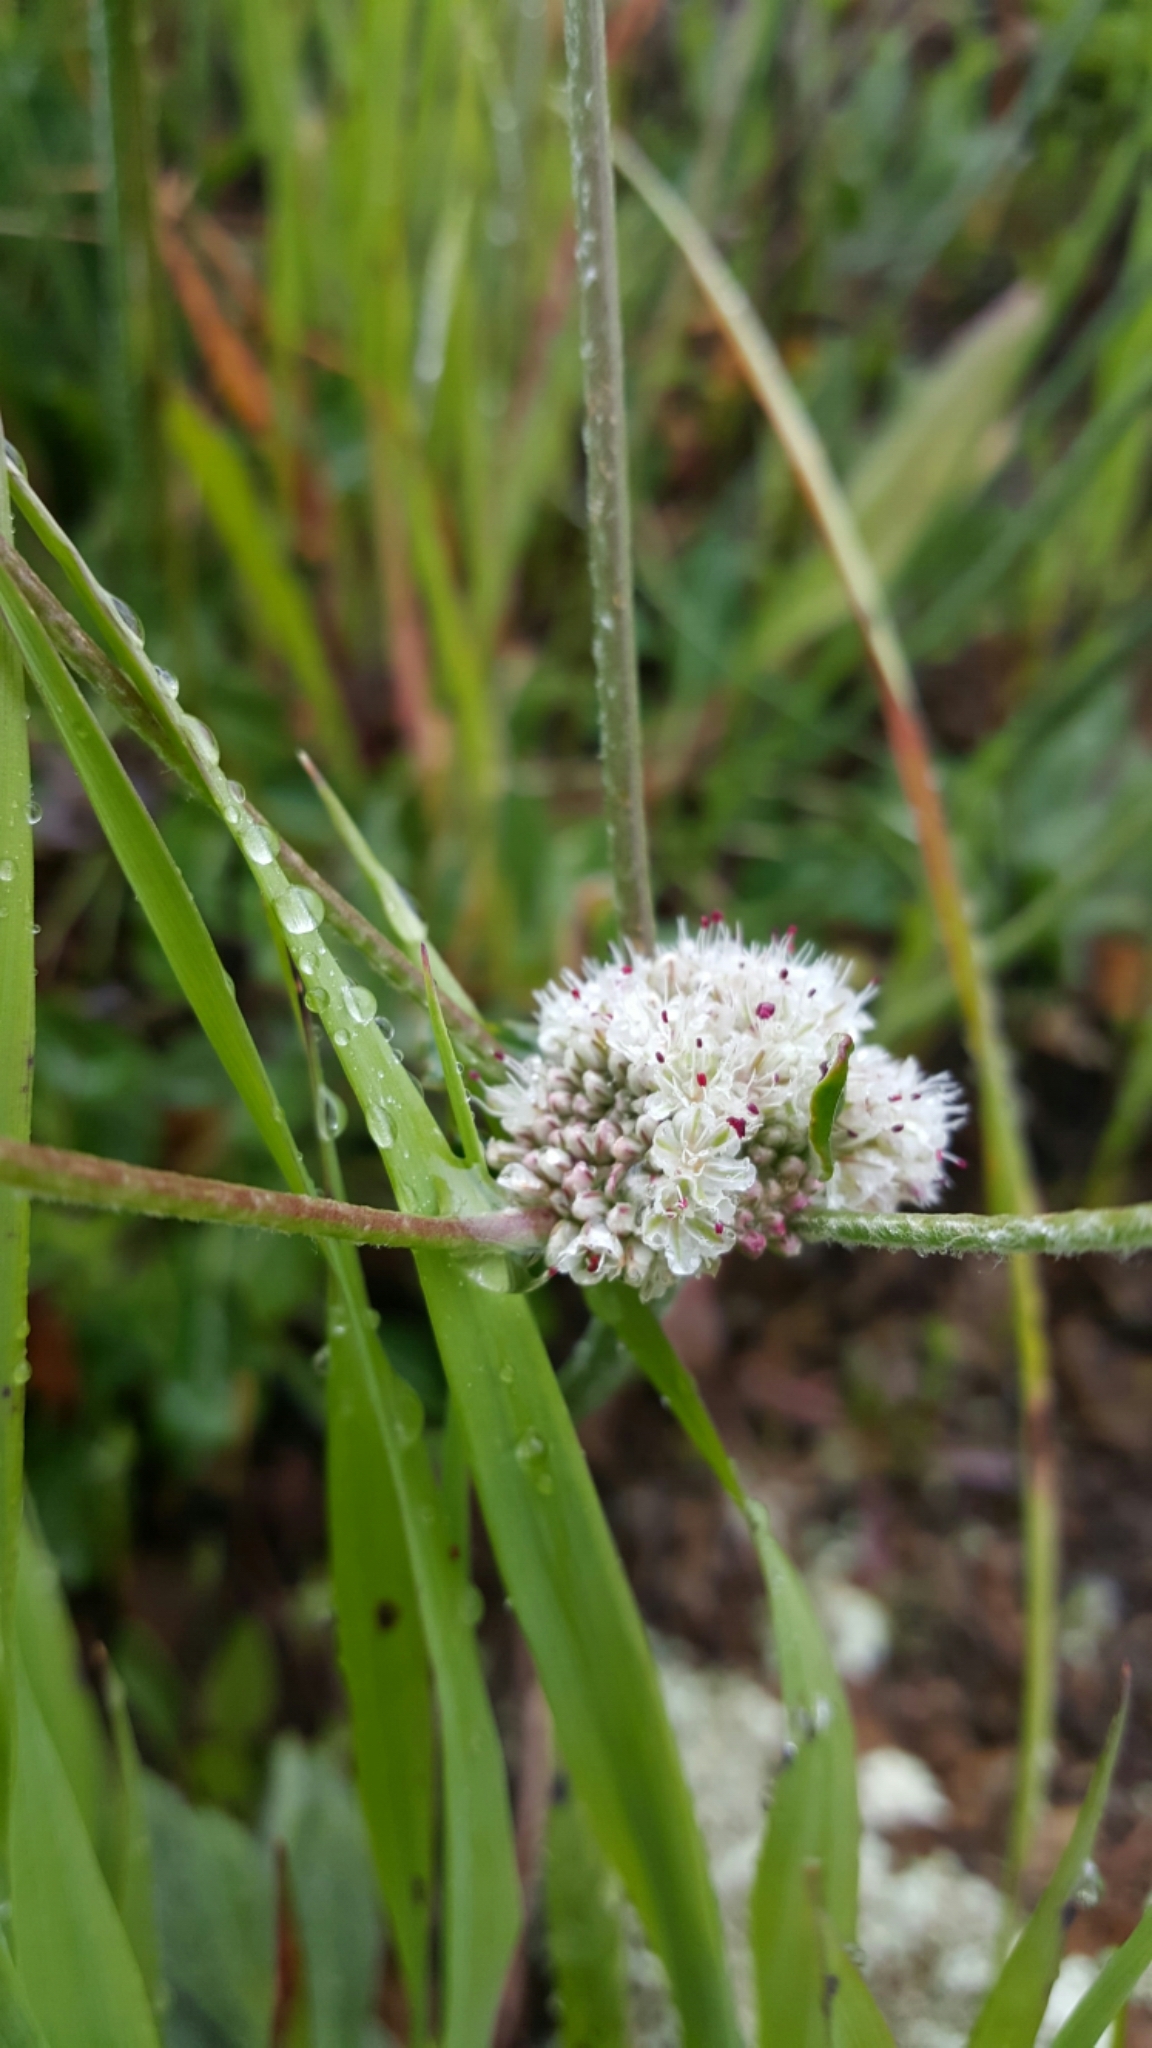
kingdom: Plantae
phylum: Tracheophyta
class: Magnoliopsida
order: Caryophyllales
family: Polygonaceae
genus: Eriogonum
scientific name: Eriogonum latifolium
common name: Seaside wild buckwheat
